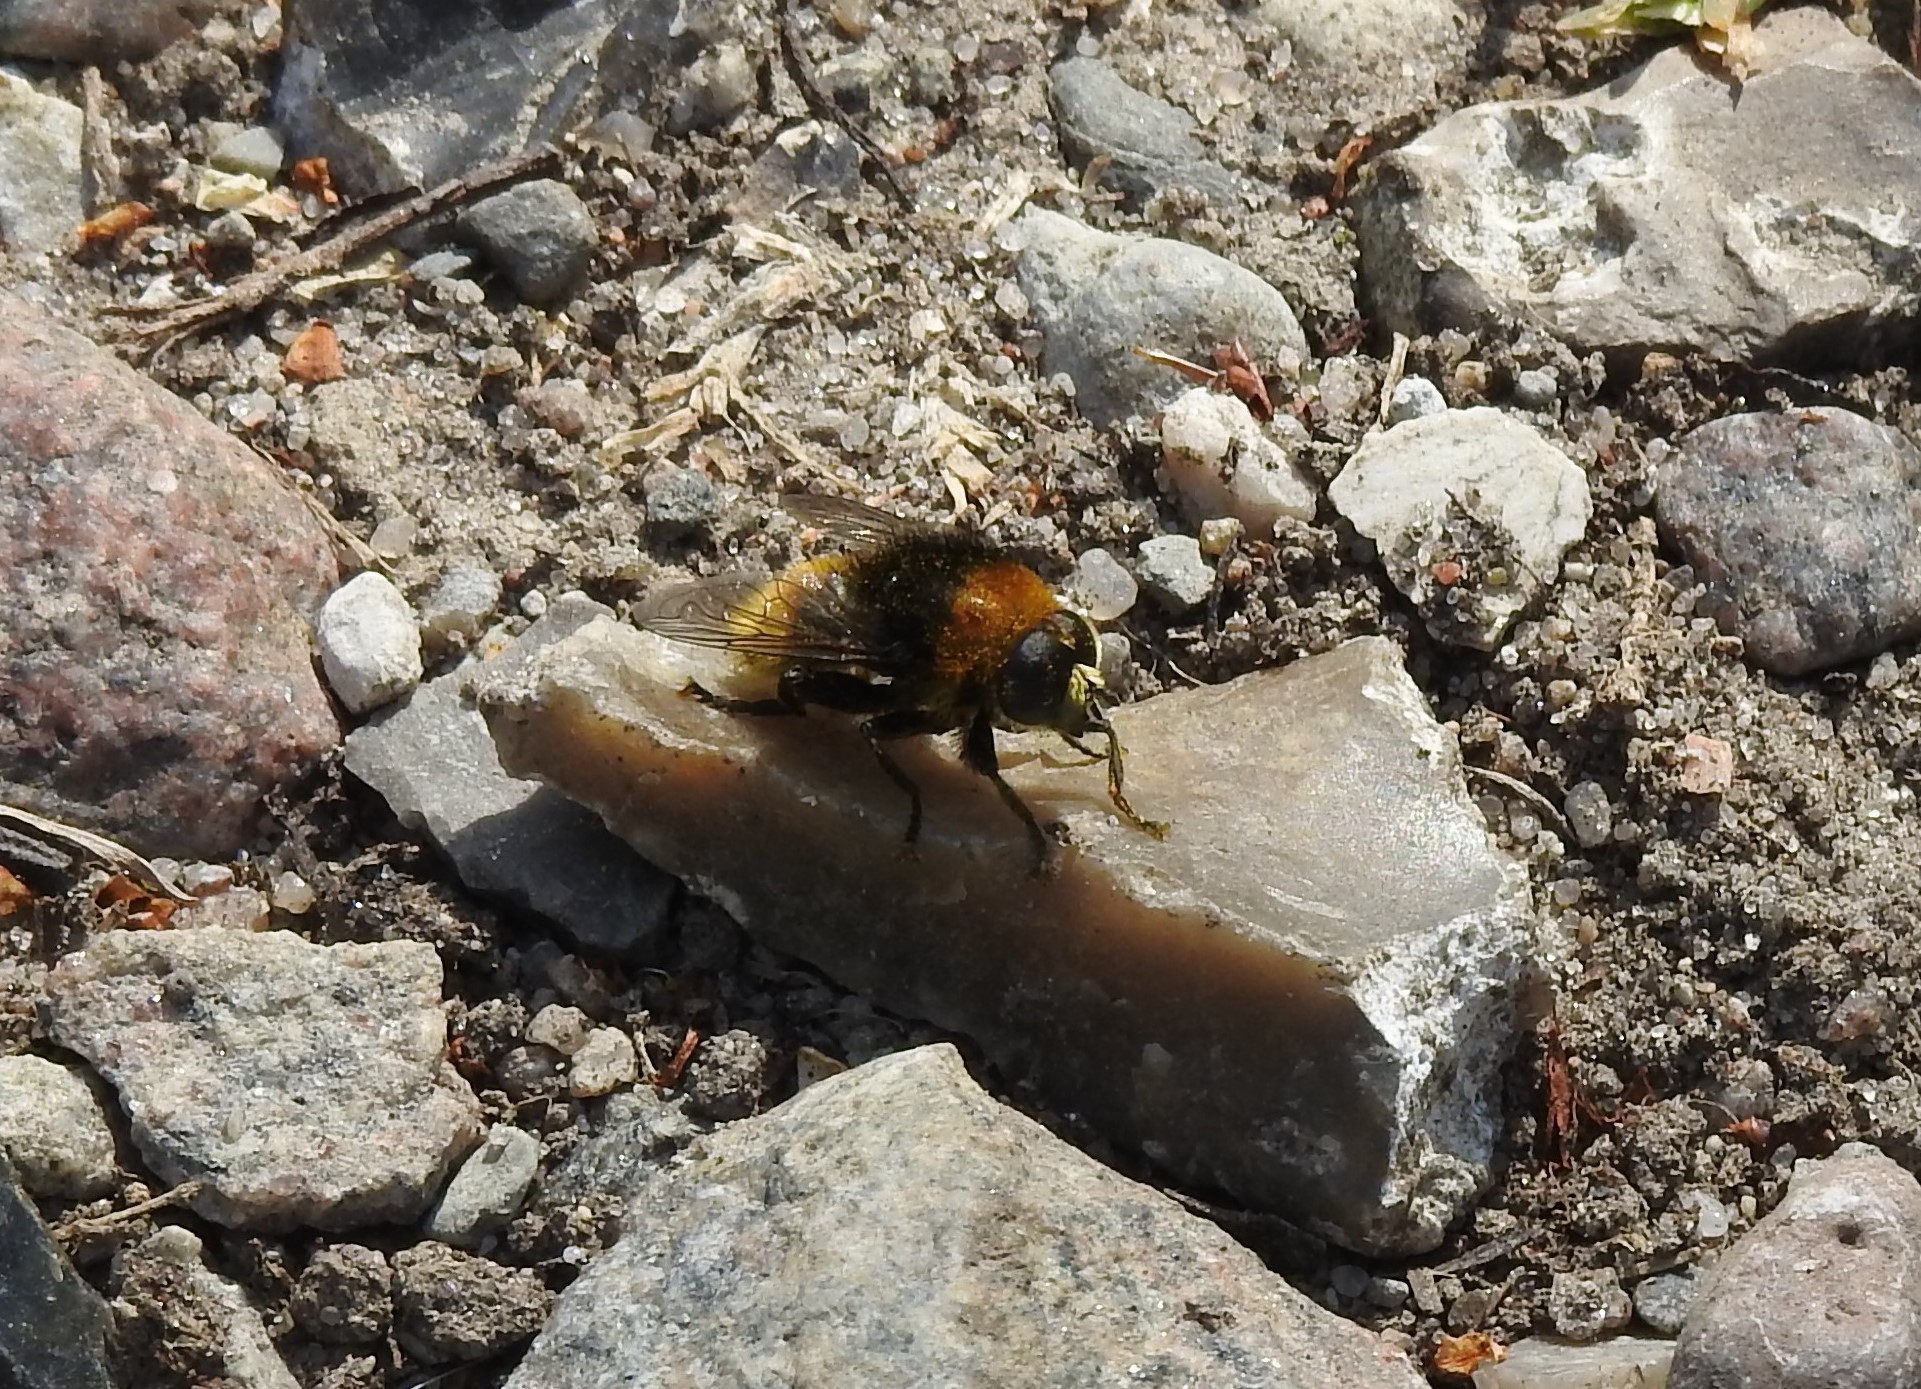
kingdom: Animalia
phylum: Arthropoda
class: Insecta
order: Diptera
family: Syrphidae
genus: Merodon
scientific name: Merodon equestris
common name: Greater bulb-fly
